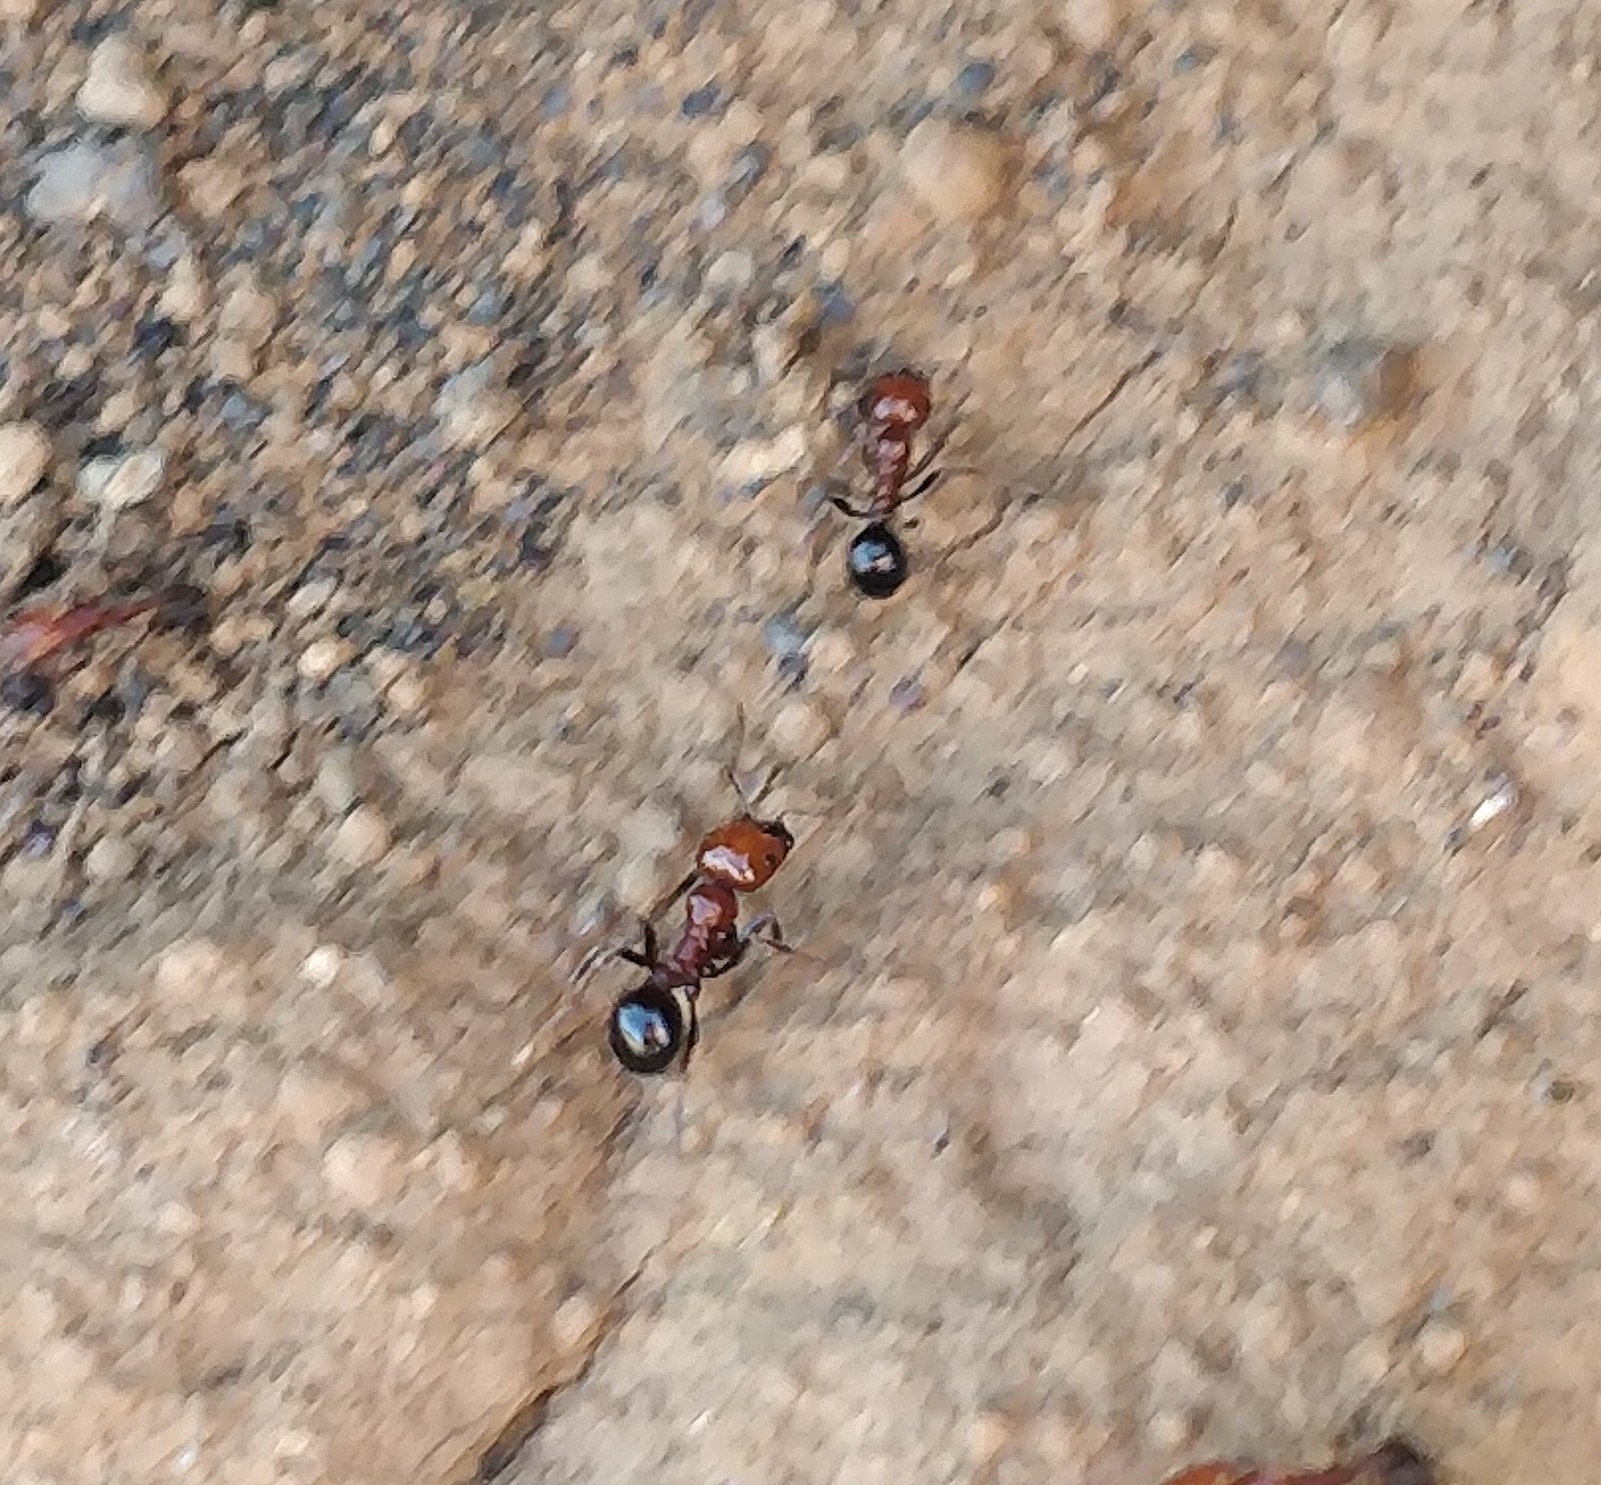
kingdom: Animalia
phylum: Arthropoda
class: Insecta
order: Hymenoptera
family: Formicidae
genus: Messor
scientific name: Messor minor
